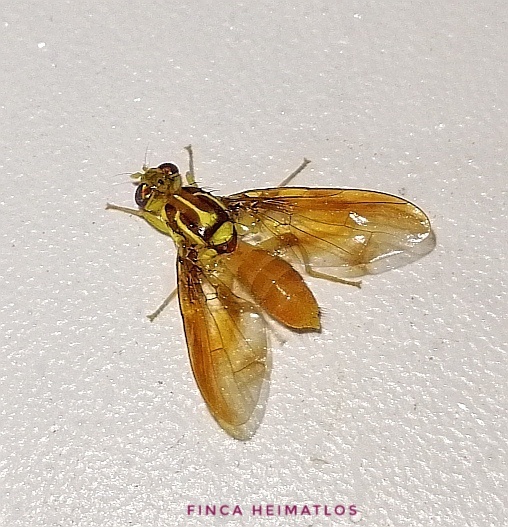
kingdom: Animalia
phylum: Arthropoda
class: Insecta
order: Diptera
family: Tephritidae
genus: Anastrepha
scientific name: Anastrepha grandis
